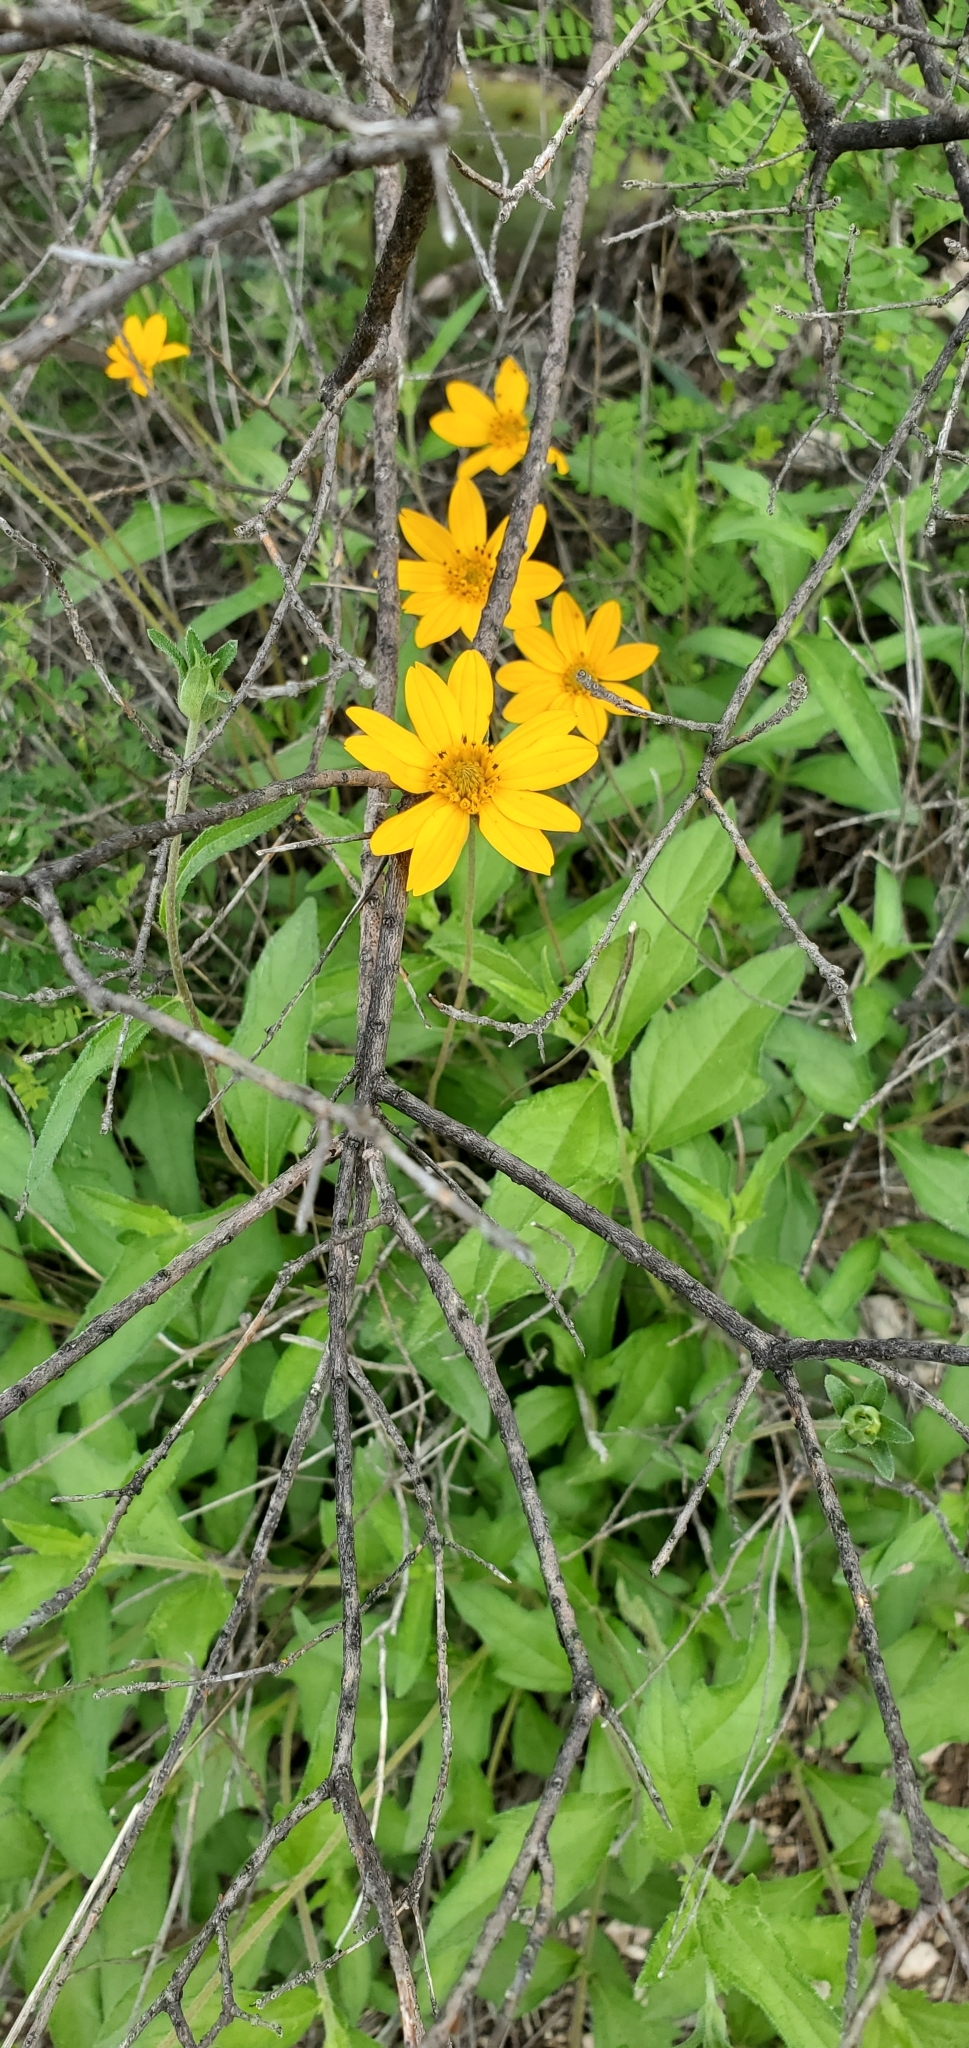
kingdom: Plantae
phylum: Tracheophyta
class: Magnoliopsida
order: Asterales
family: Asteraceae
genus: Wedelia
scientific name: Wedelia acapulcensis
